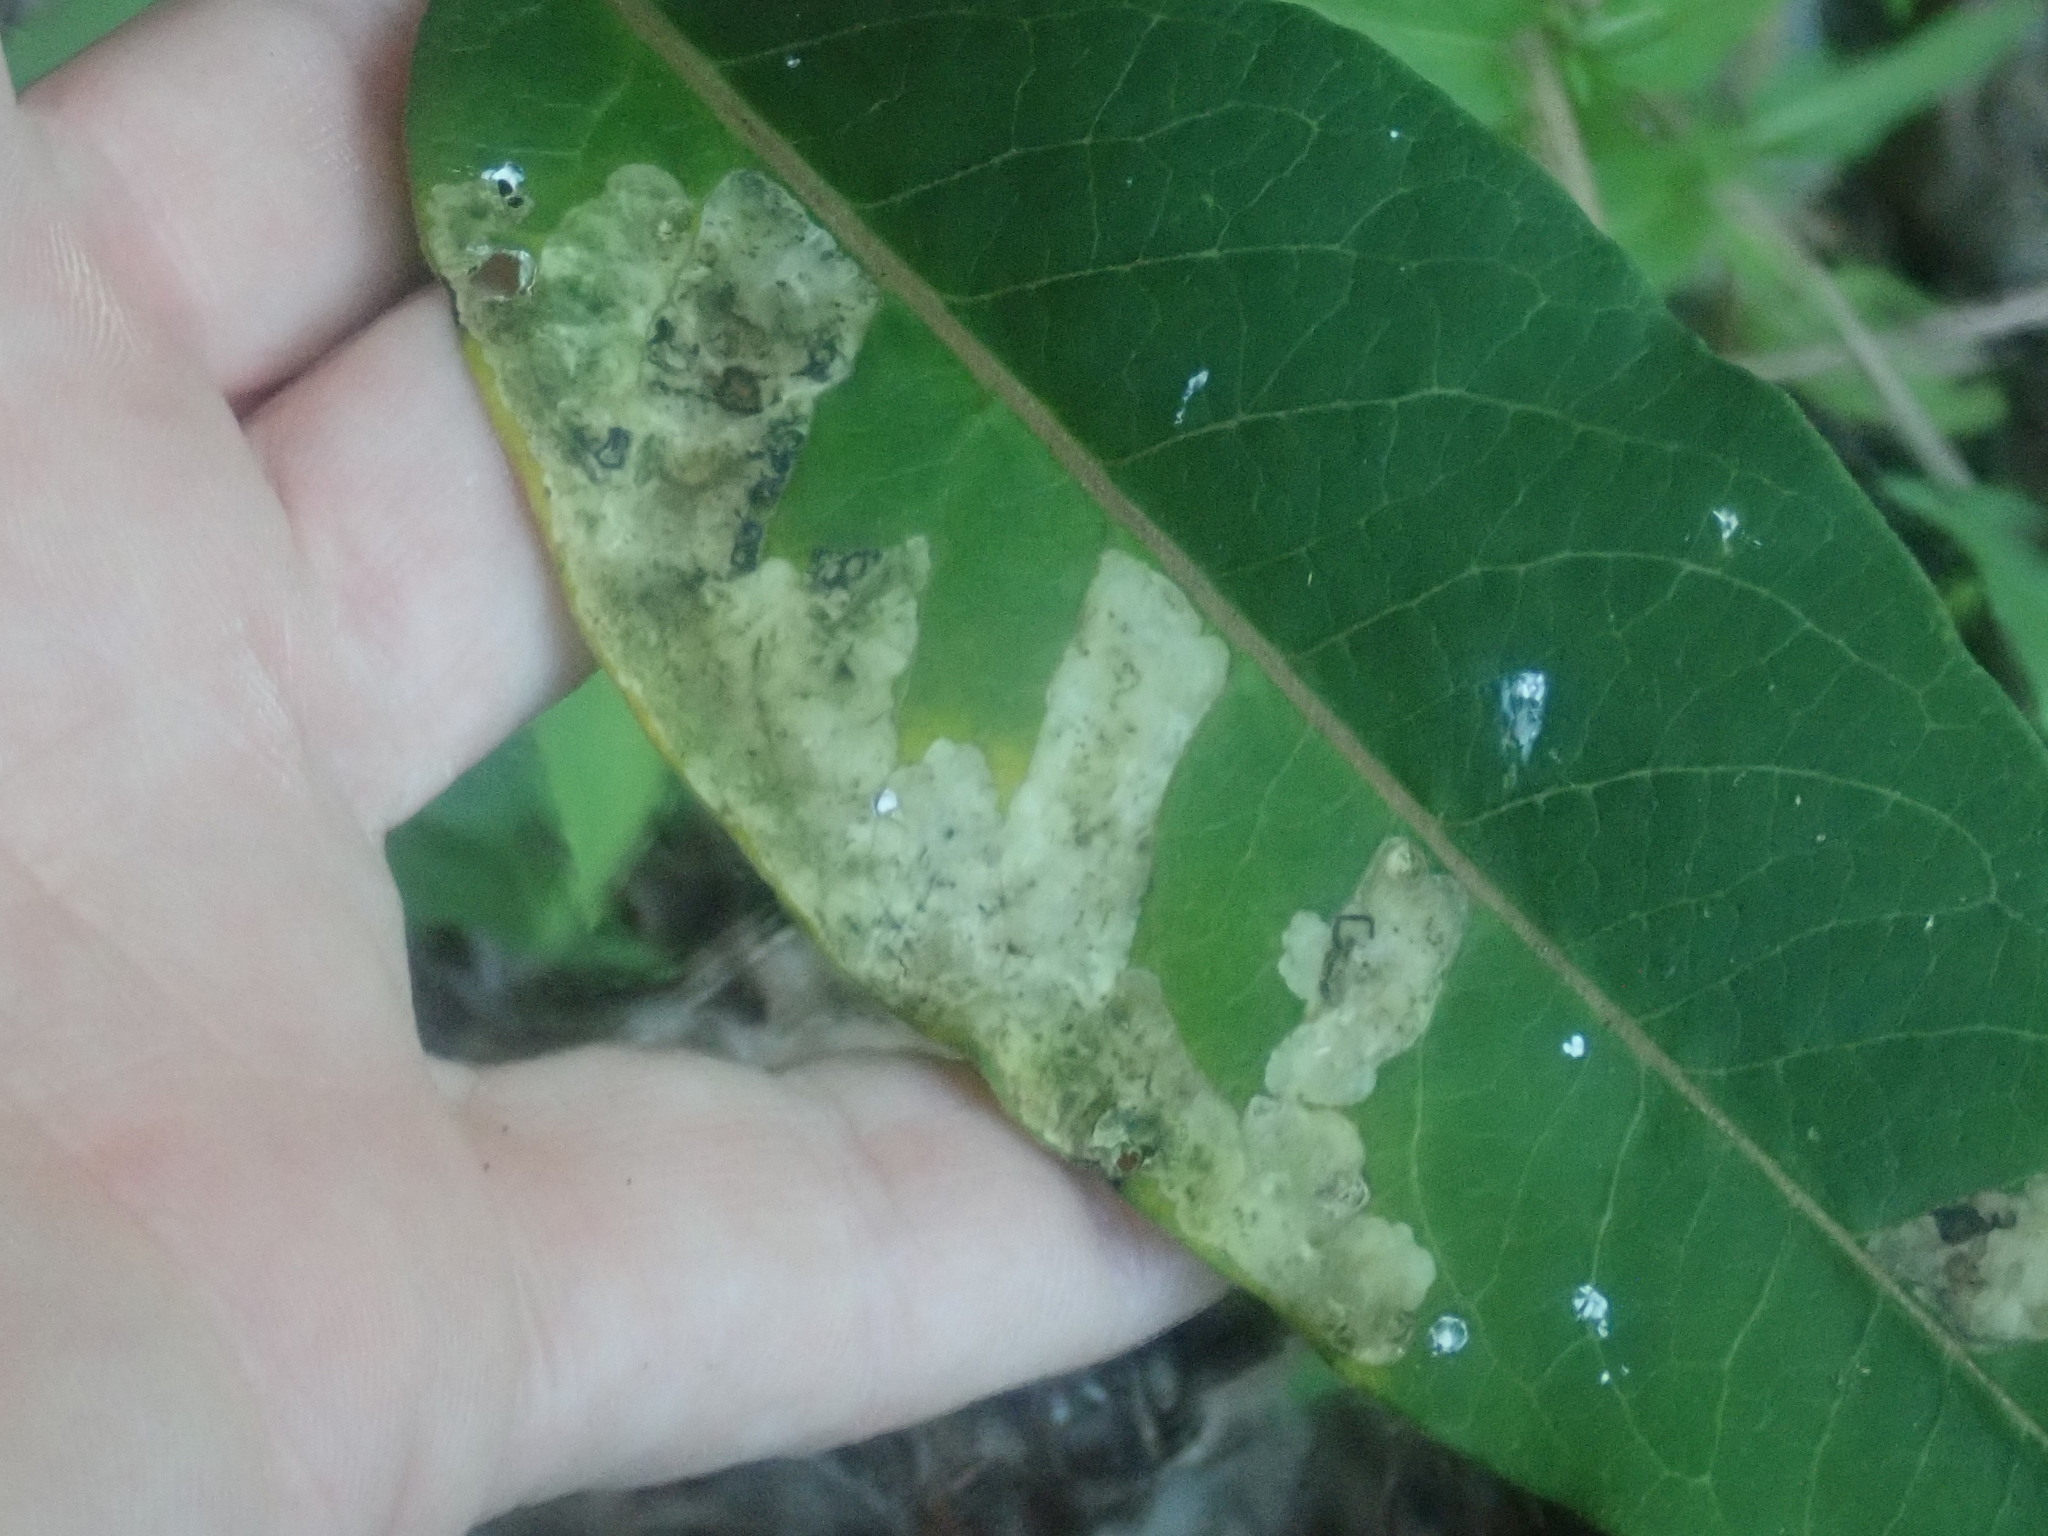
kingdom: Animalia
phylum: Arthropoda
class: Insecta
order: Diptera
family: Agromyzidae
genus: Liriomyza
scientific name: Liriomyza asclepiadis
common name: Milkweed leaf-miner fly
